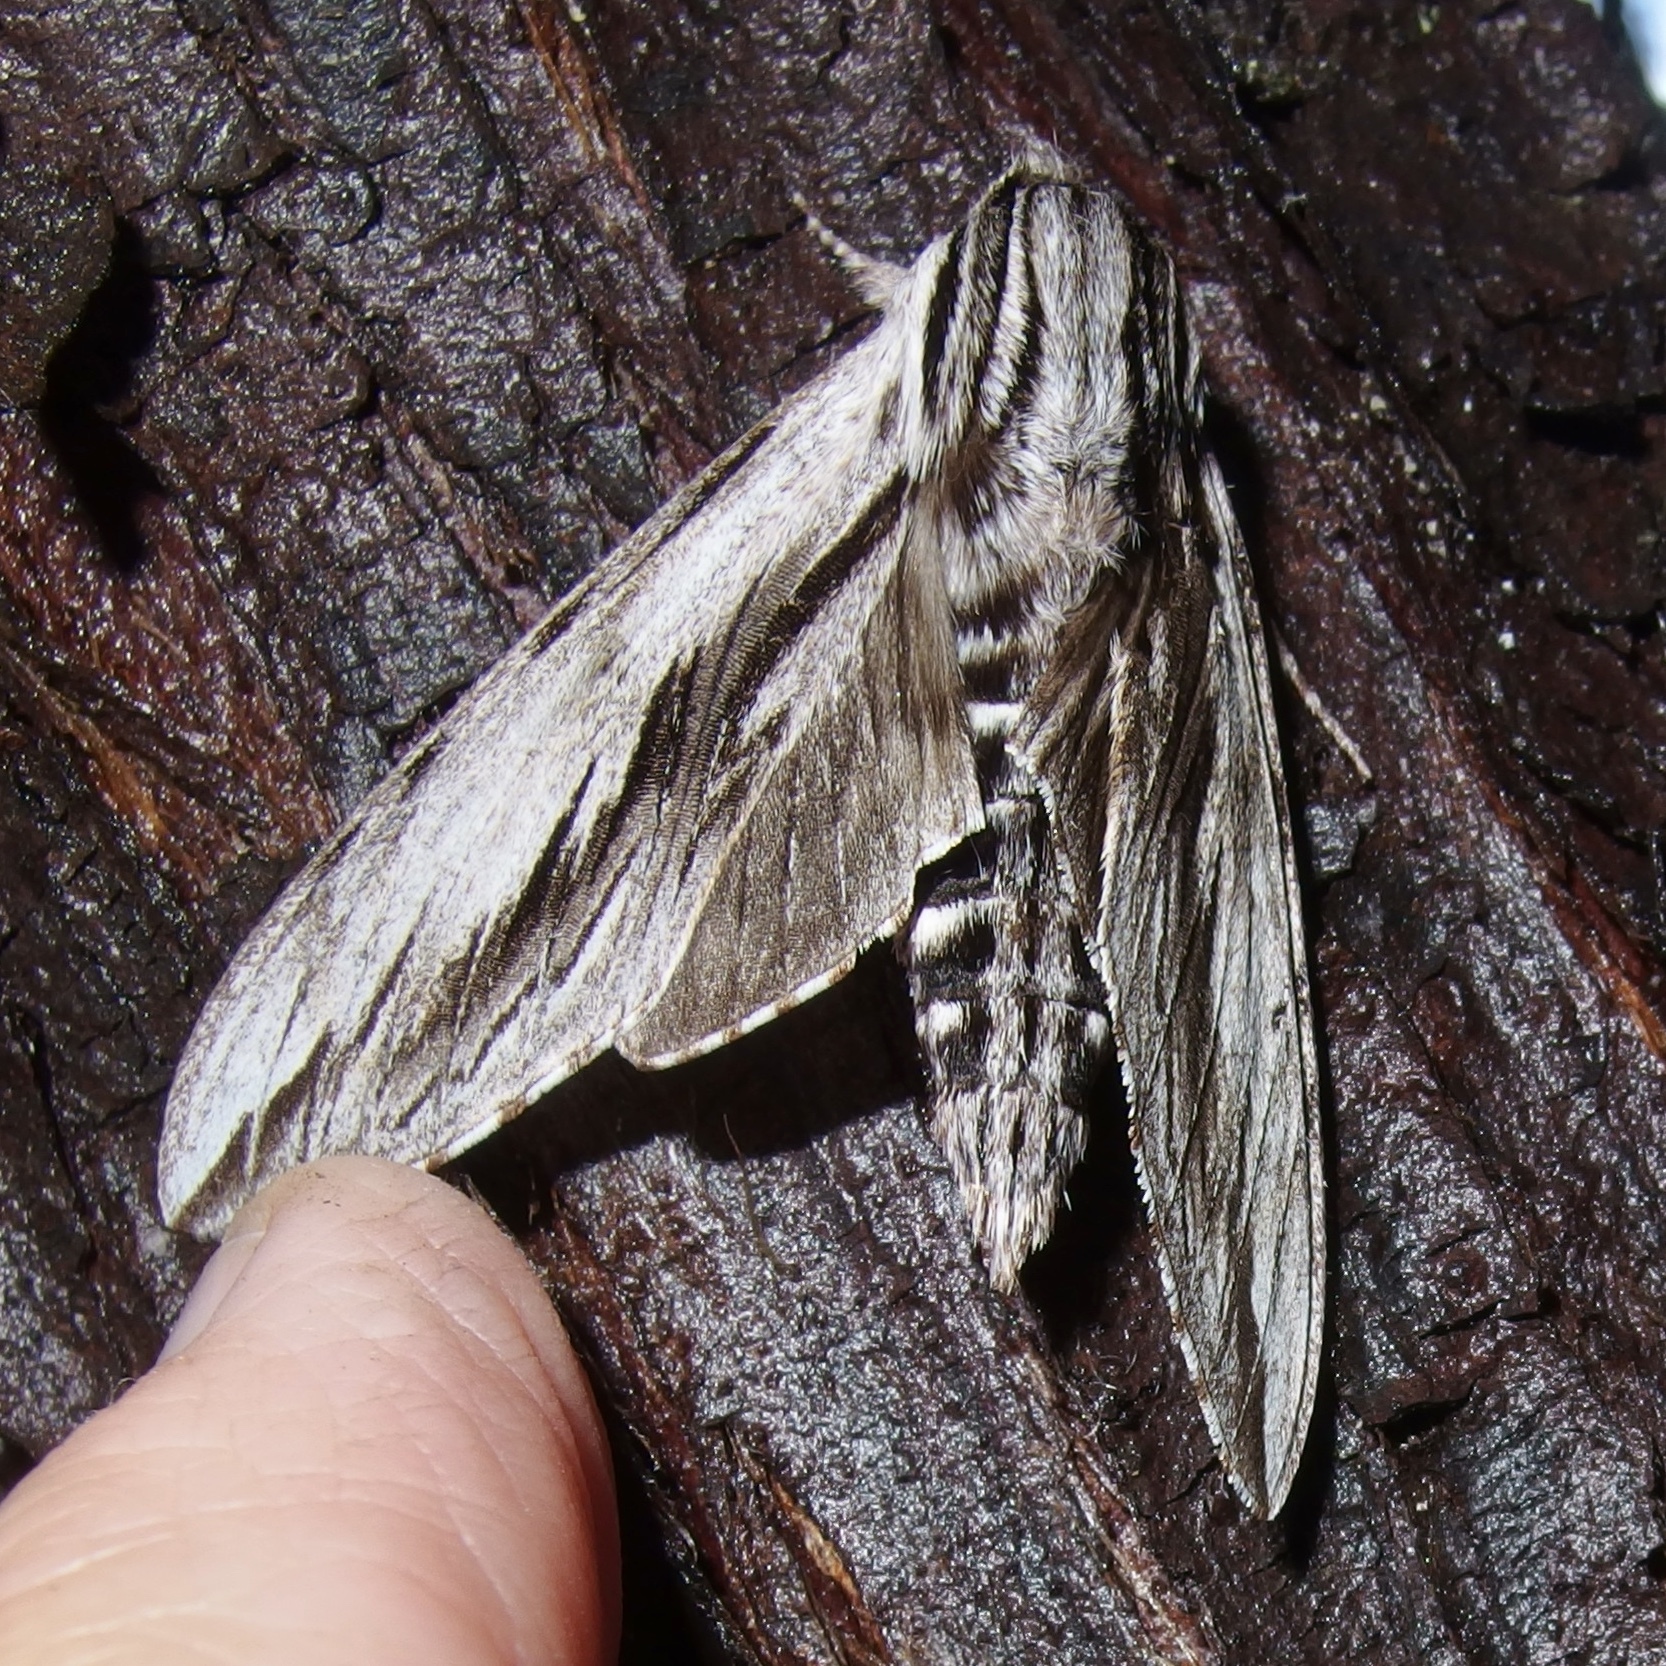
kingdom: Animalia
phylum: Arthropoda
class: Insecta
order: Lepidoptera
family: Sphingidae
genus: Sphinx
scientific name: Sphinx dollii
